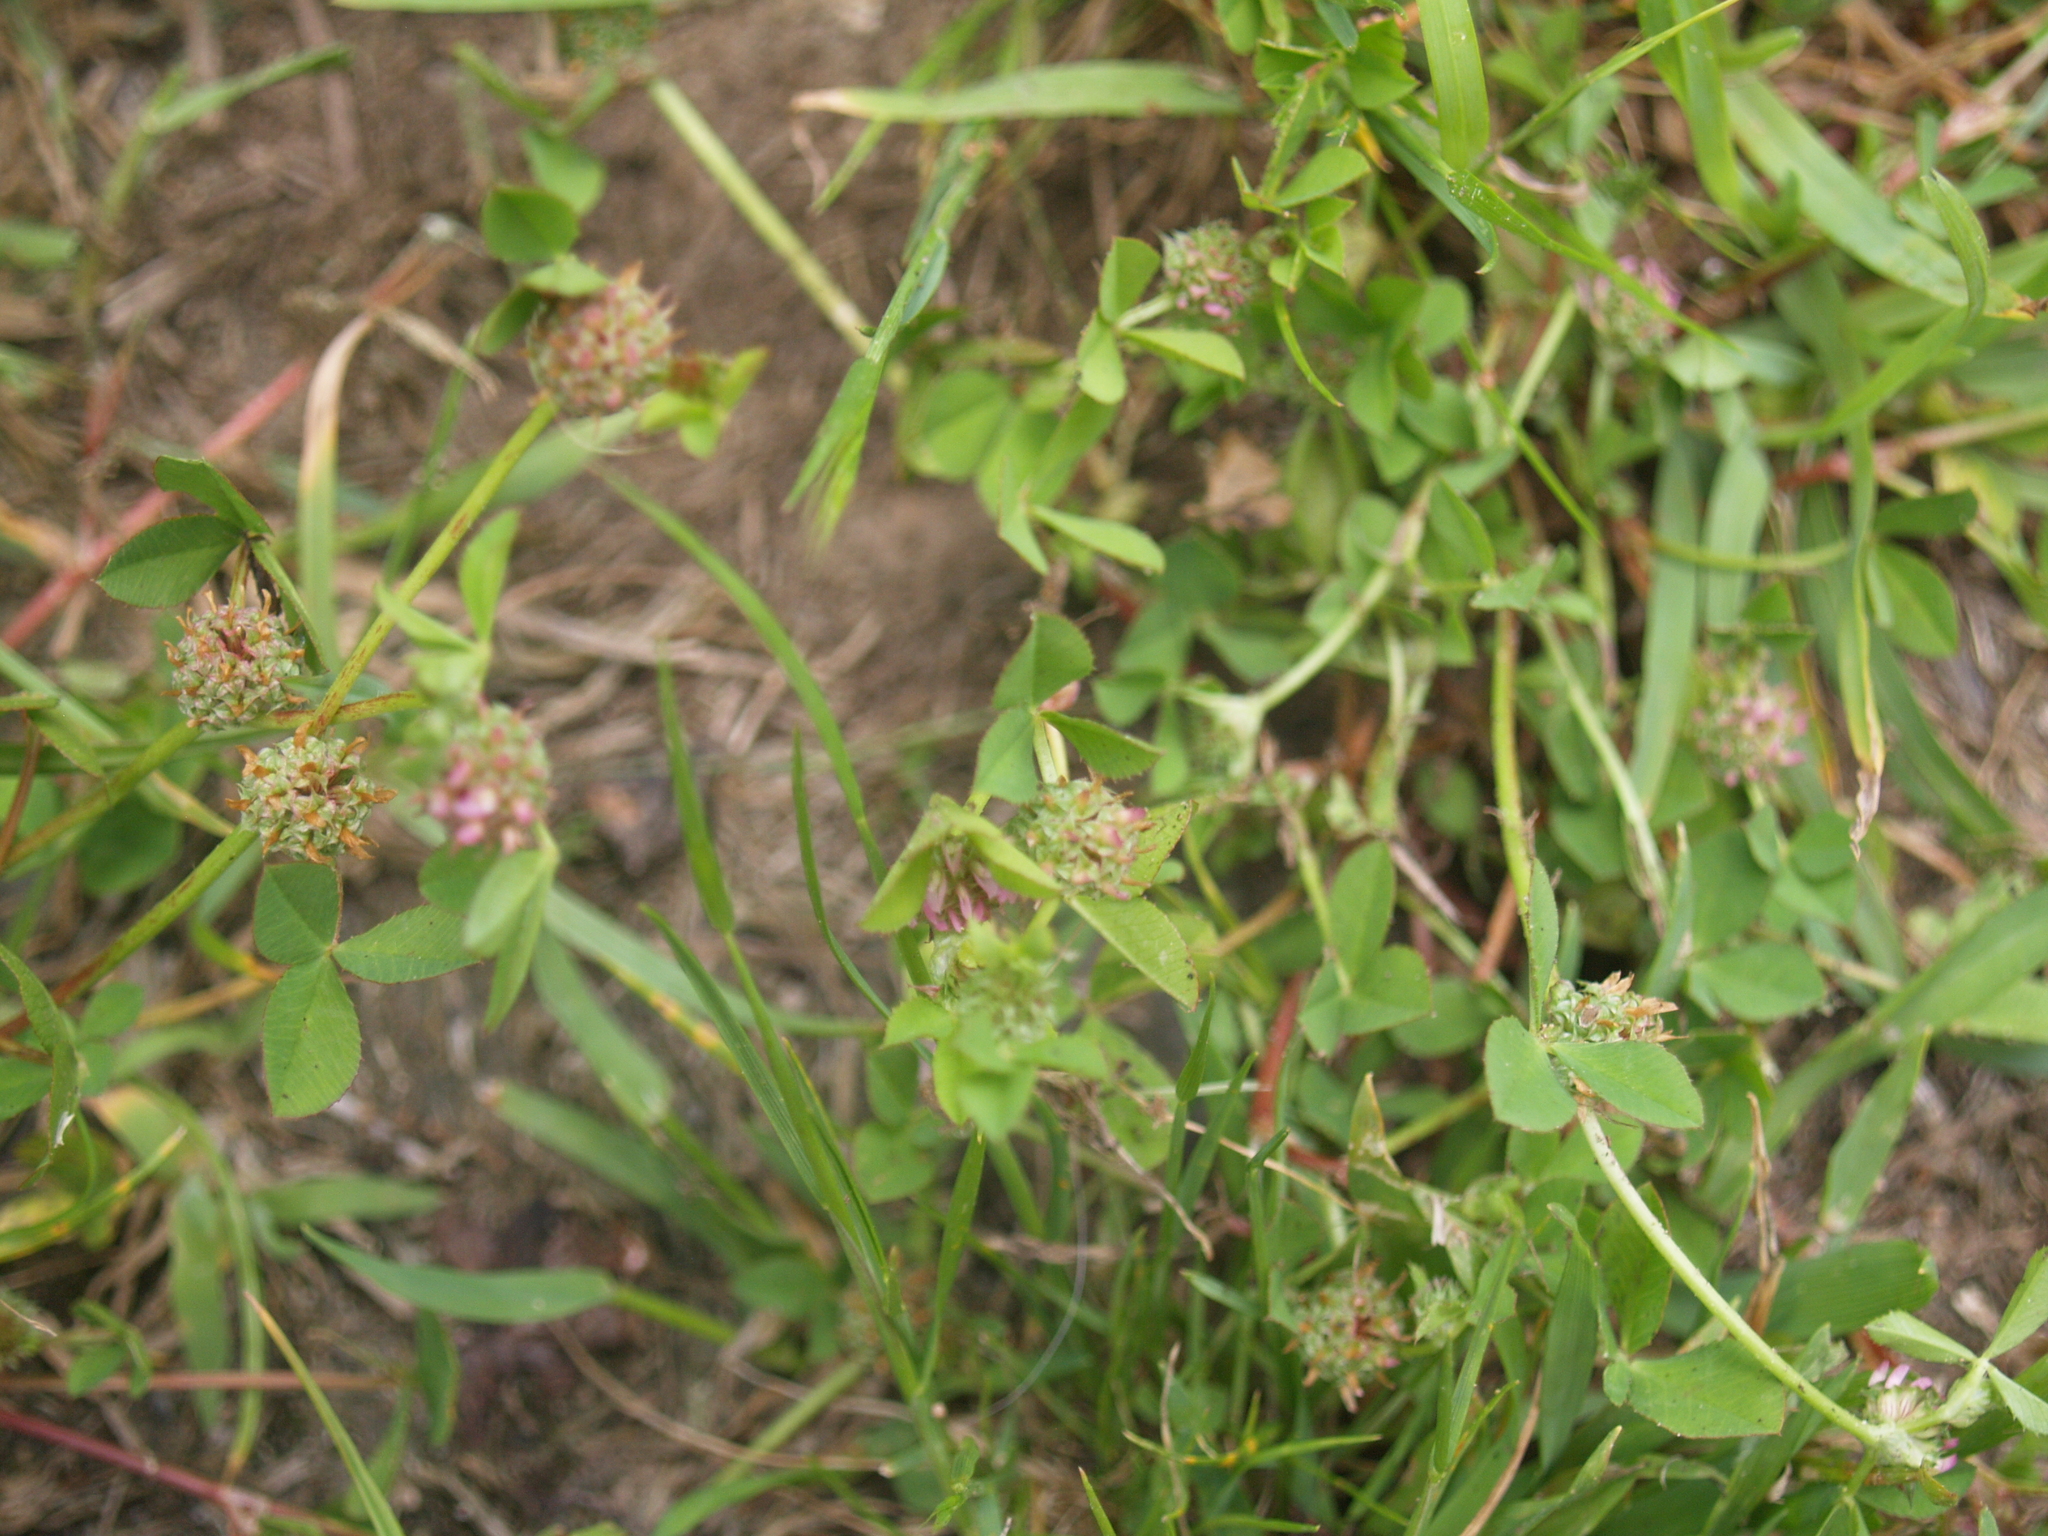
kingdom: Plantae
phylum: Tracheophyta
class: Magnoliopsida
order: Fabales
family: Fabaceae
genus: Trifolium
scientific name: Trifolium glomeratum
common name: Clustered clover
